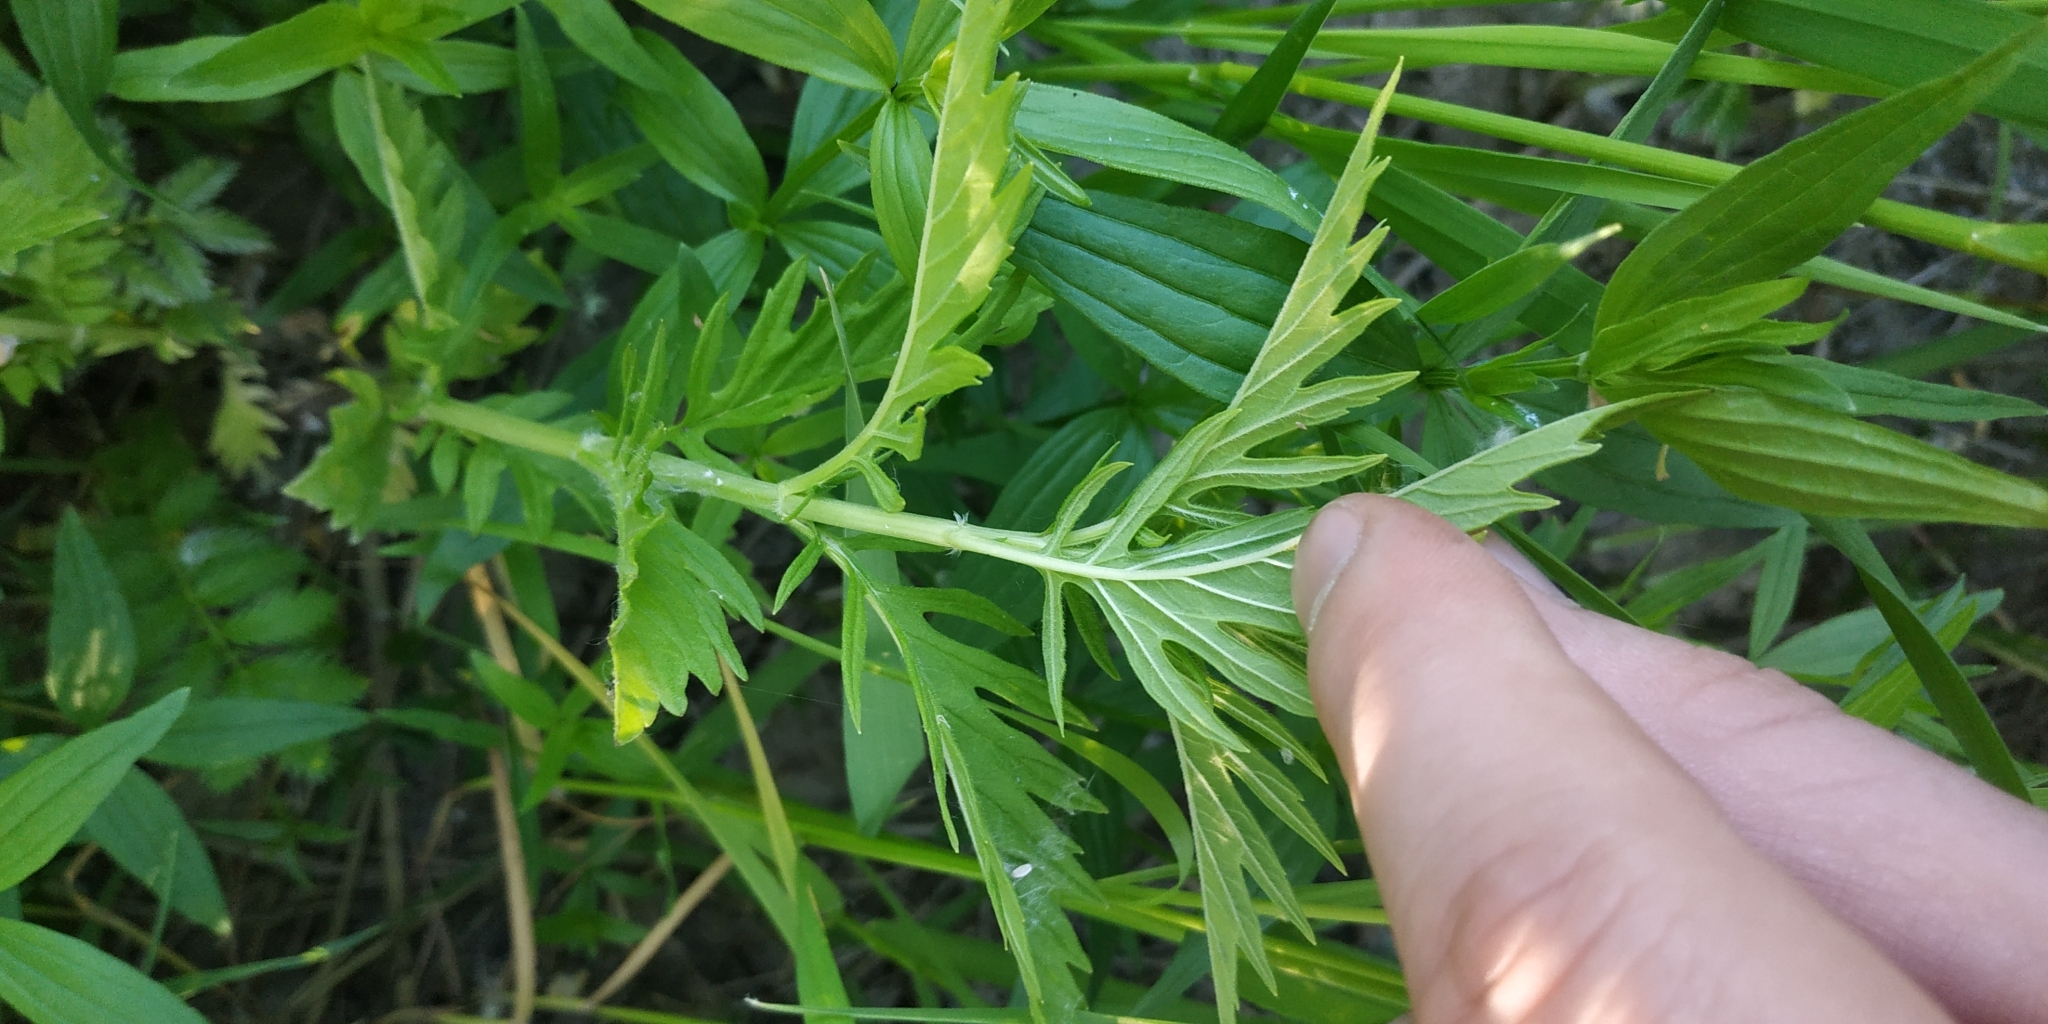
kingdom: Plantae
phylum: Tracheophyta
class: Magnoliopsida
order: Lamiales
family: Lamiaceae
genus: Lycopus
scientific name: Lycopus exaltatus
